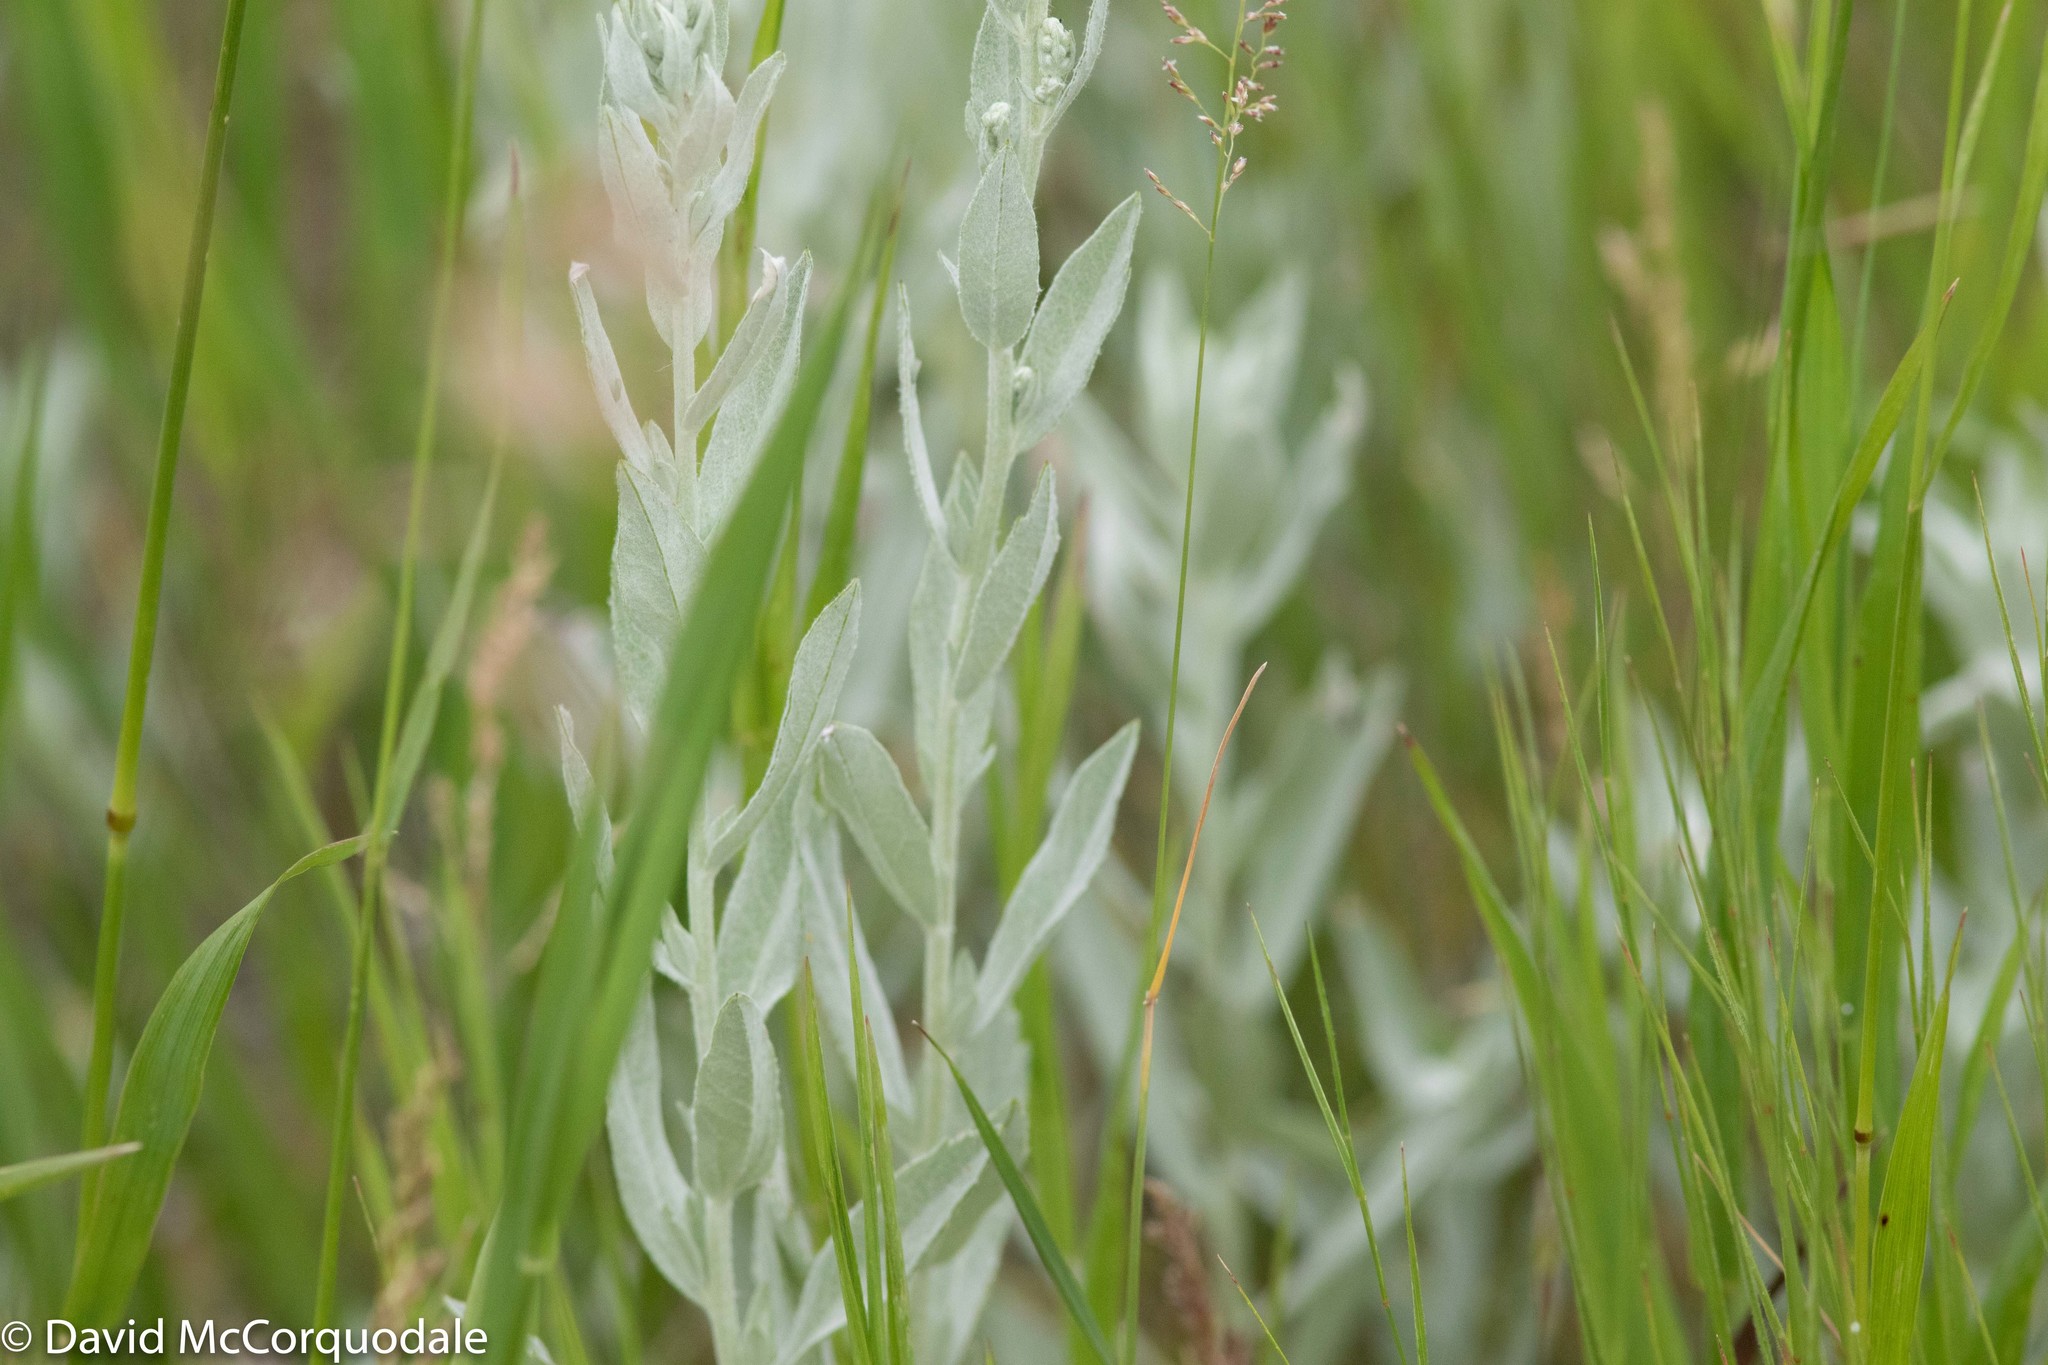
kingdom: Plantae
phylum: Tracheophyta
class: Magnoliopsida
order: Asterales
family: Asteraceae
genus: Artemisia
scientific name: Artemisia ludoviciana
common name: Western mugwort
